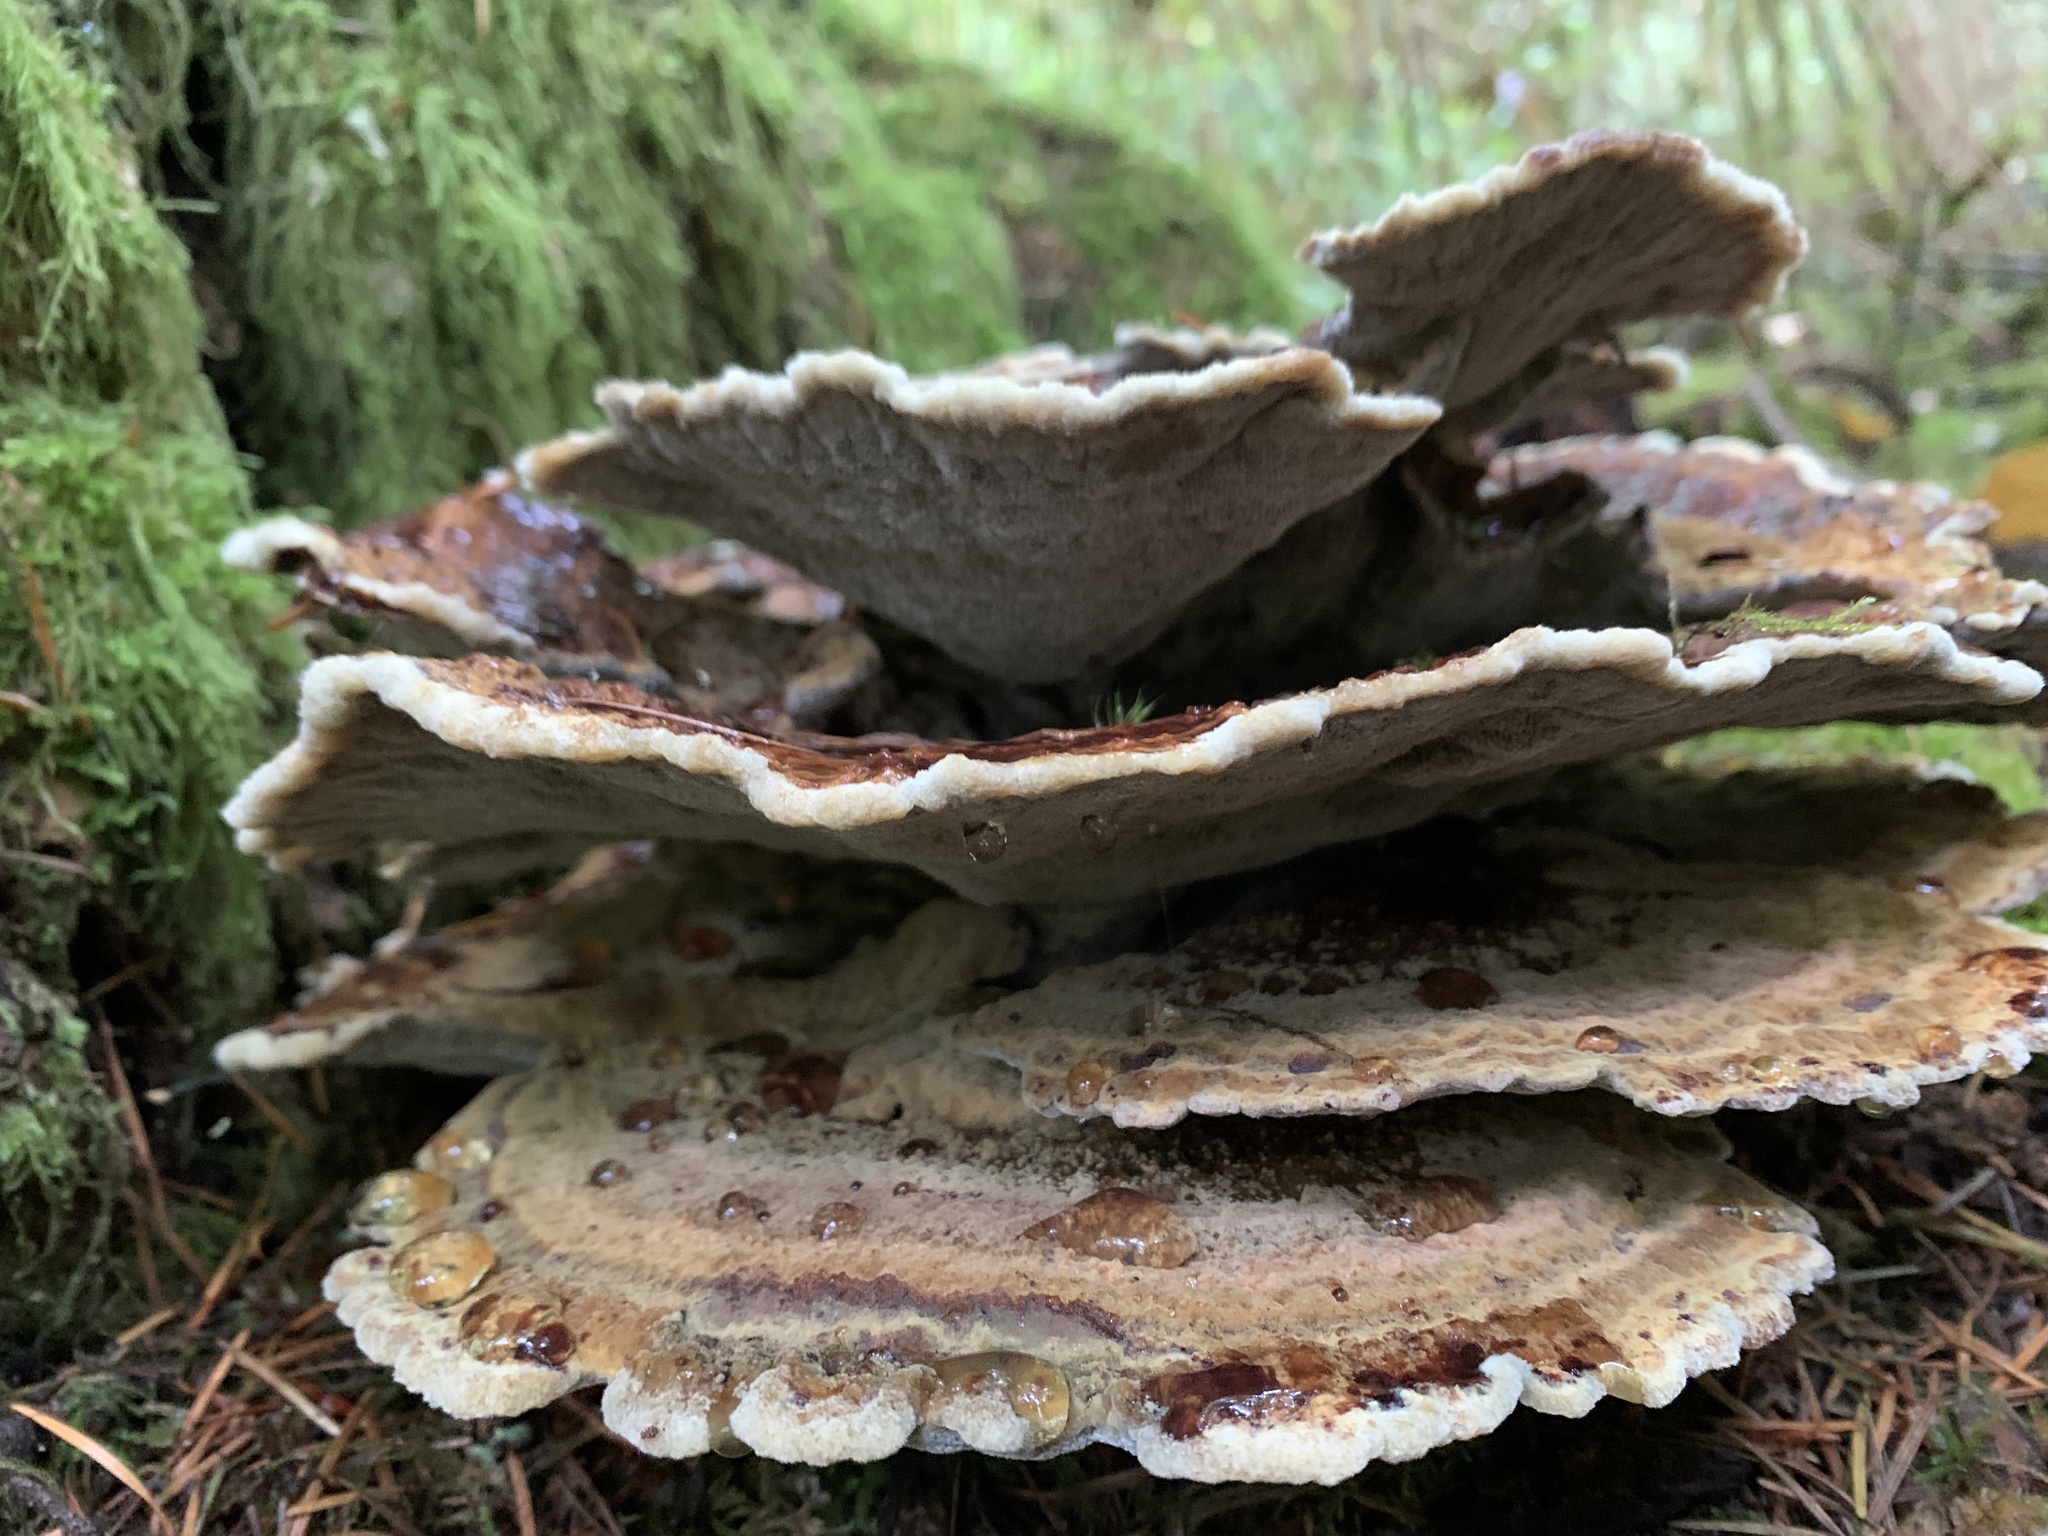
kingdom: Fungi
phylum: Basidiomycota
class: Agaricomycetes
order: Polyporales
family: Laetiporaceae
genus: Phaeolus
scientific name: Phaeolus schweinitzii
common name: Dyer's mazegill
